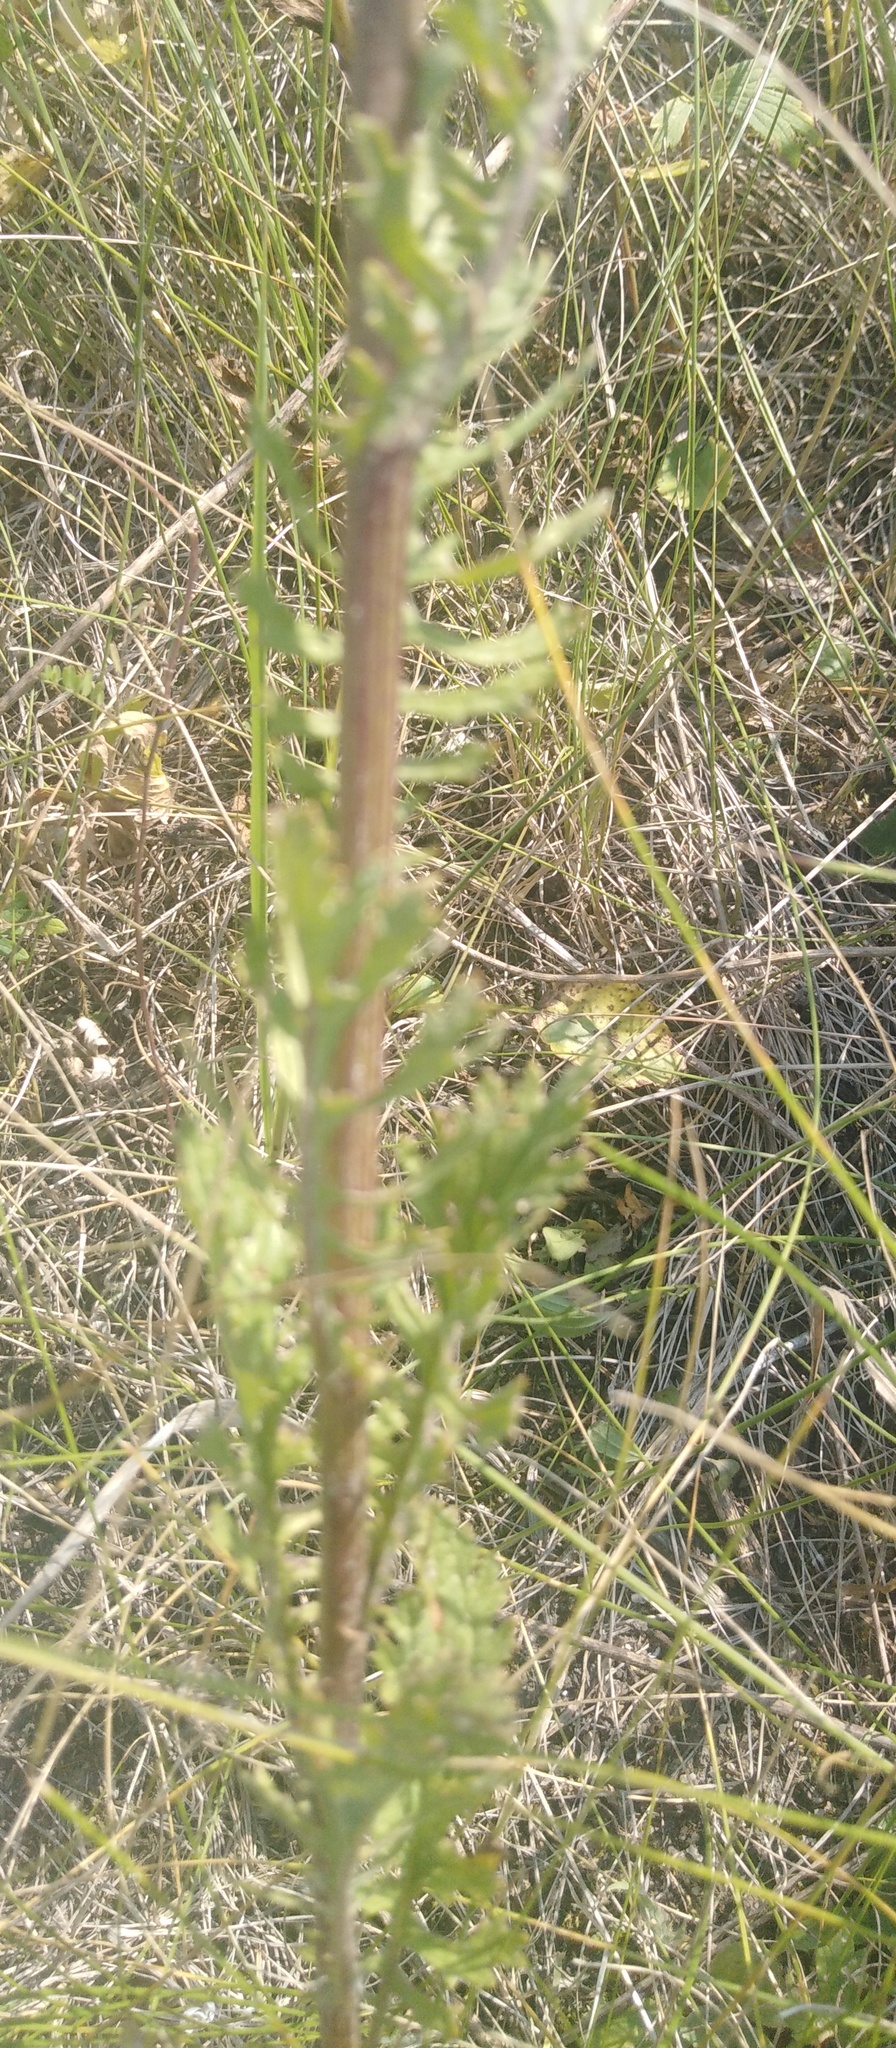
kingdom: Plantae
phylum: Tracheophyta
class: Magnoliopsida
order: Asterales
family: Asteraceae
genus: Jacobaea
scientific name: Jacobaea vulgaris
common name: Stinking willie
